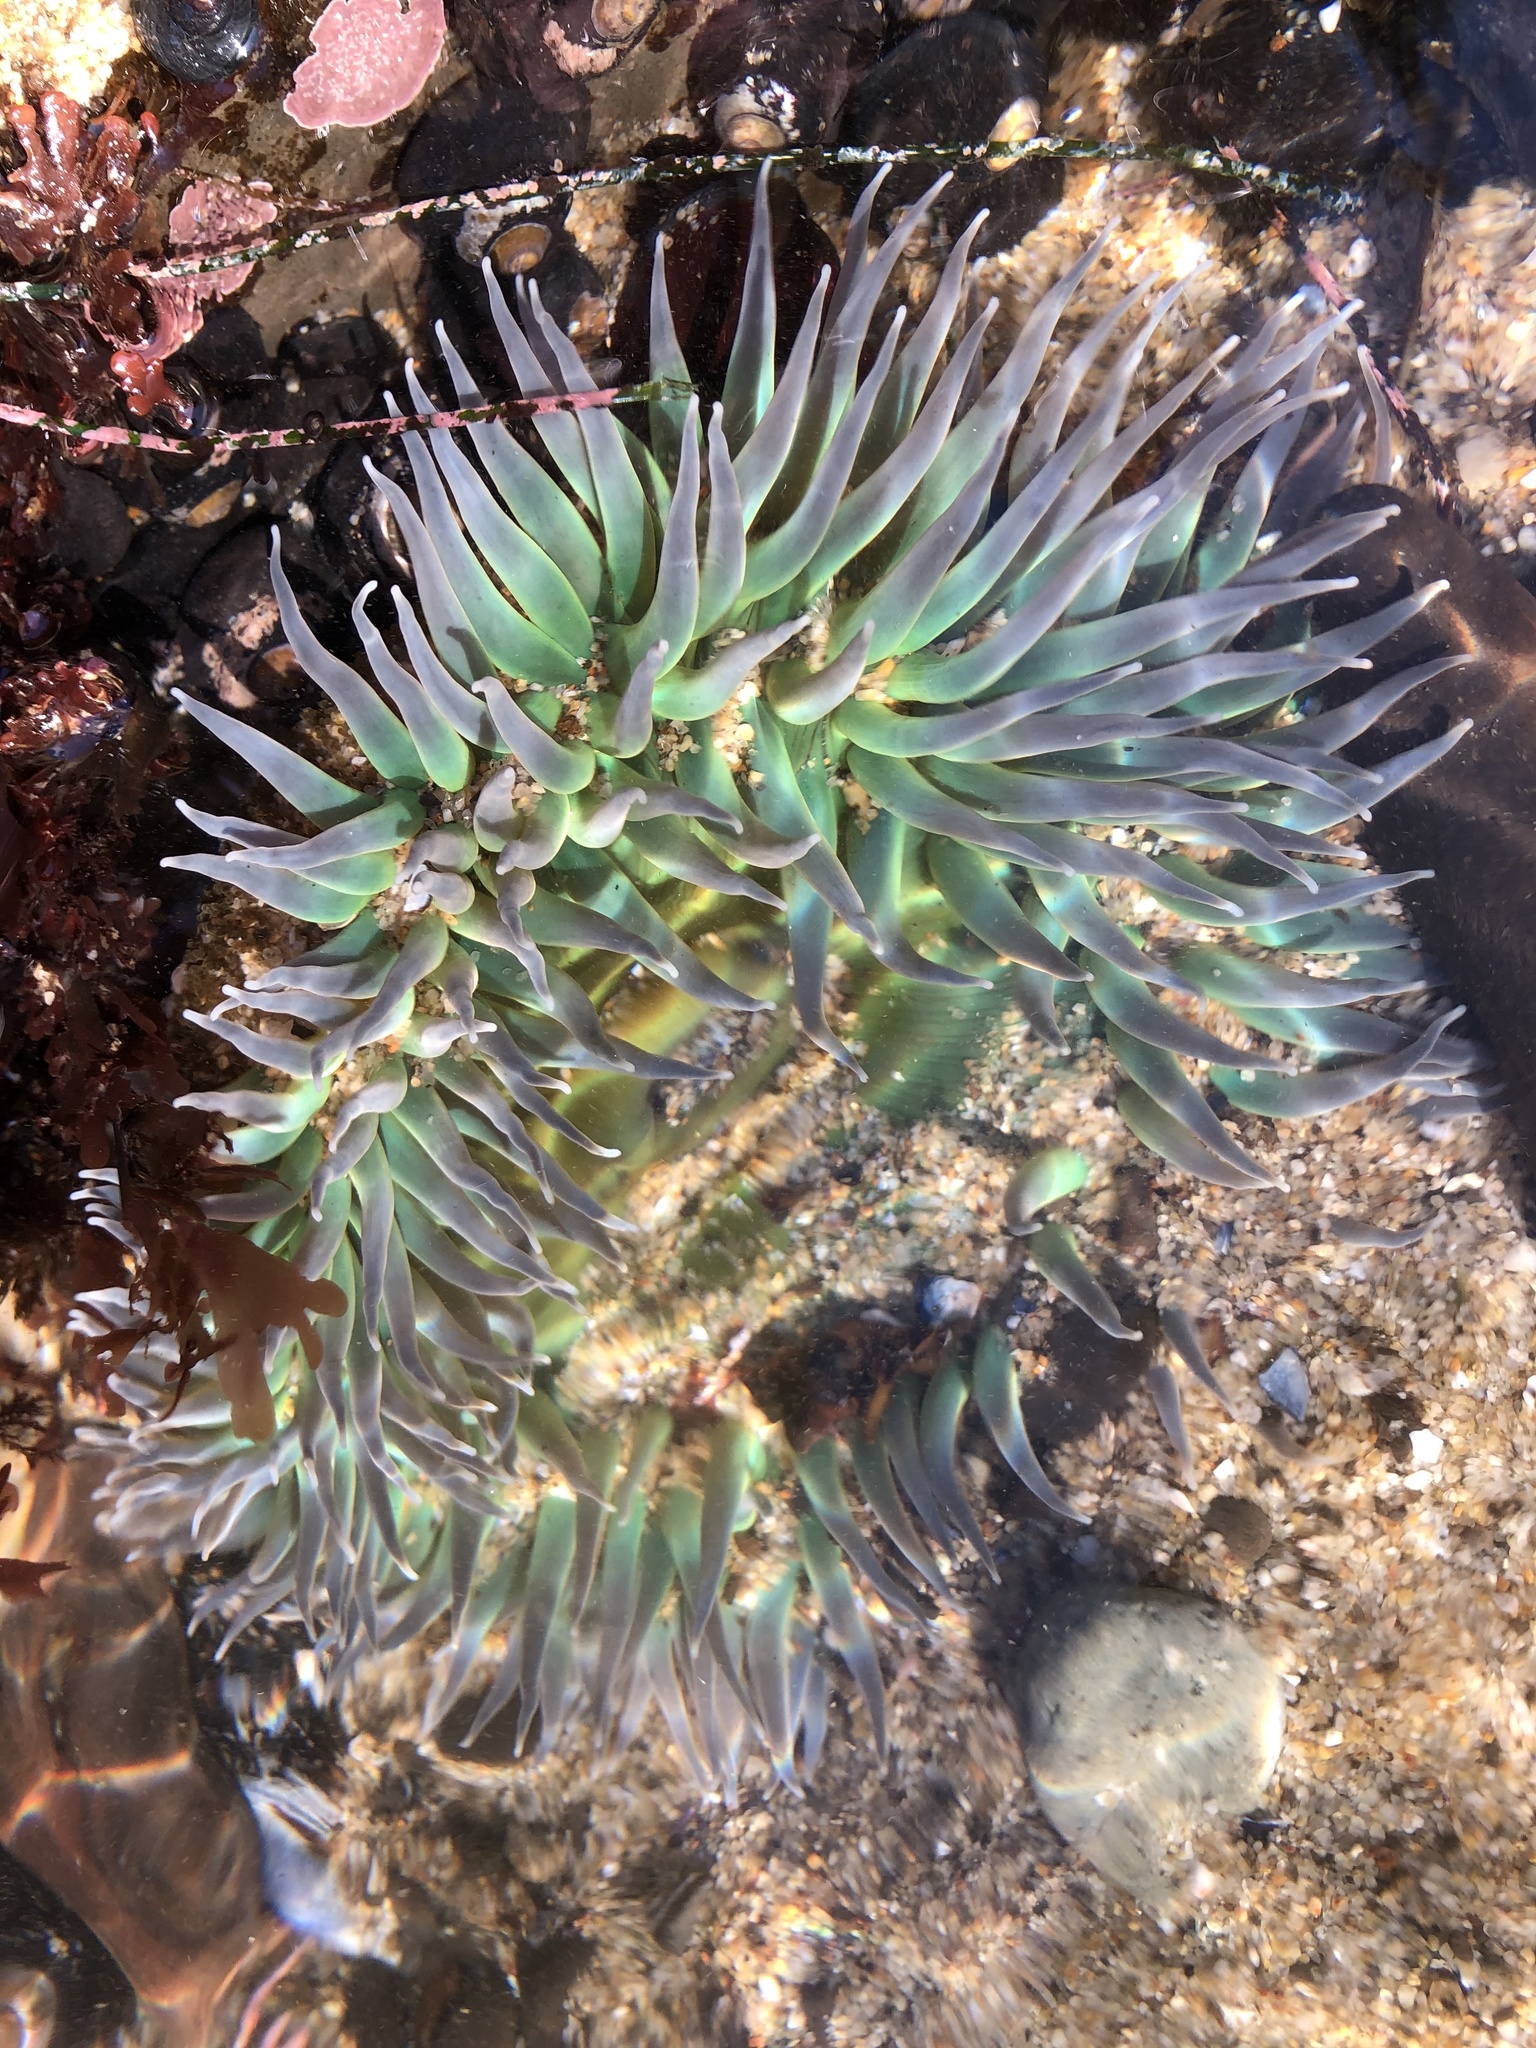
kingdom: Animalia
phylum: Cnidaria
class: Anthozoa
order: Actiniaria
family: Actiniidae
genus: Anthopleura
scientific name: Anthopleura xanthogrammica
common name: Giant green anemone
